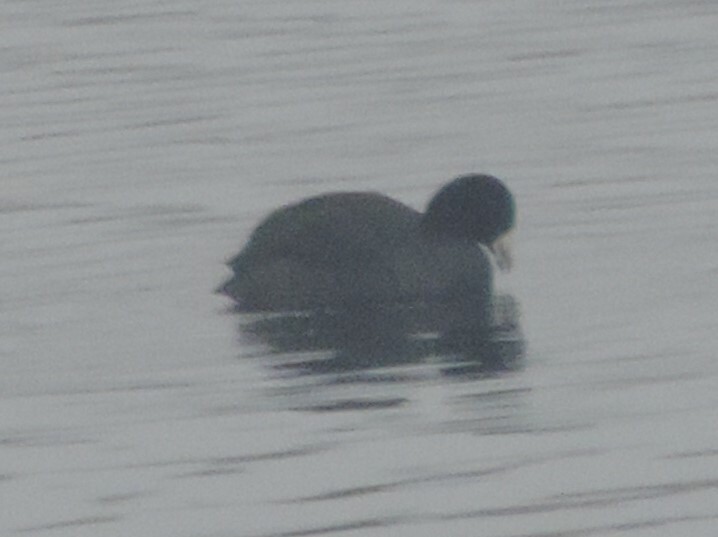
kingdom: Animalia
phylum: Chordata
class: Aves
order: Gruiformes
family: Rallidae
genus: Fulica
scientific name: Fulica americana
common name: American coot
